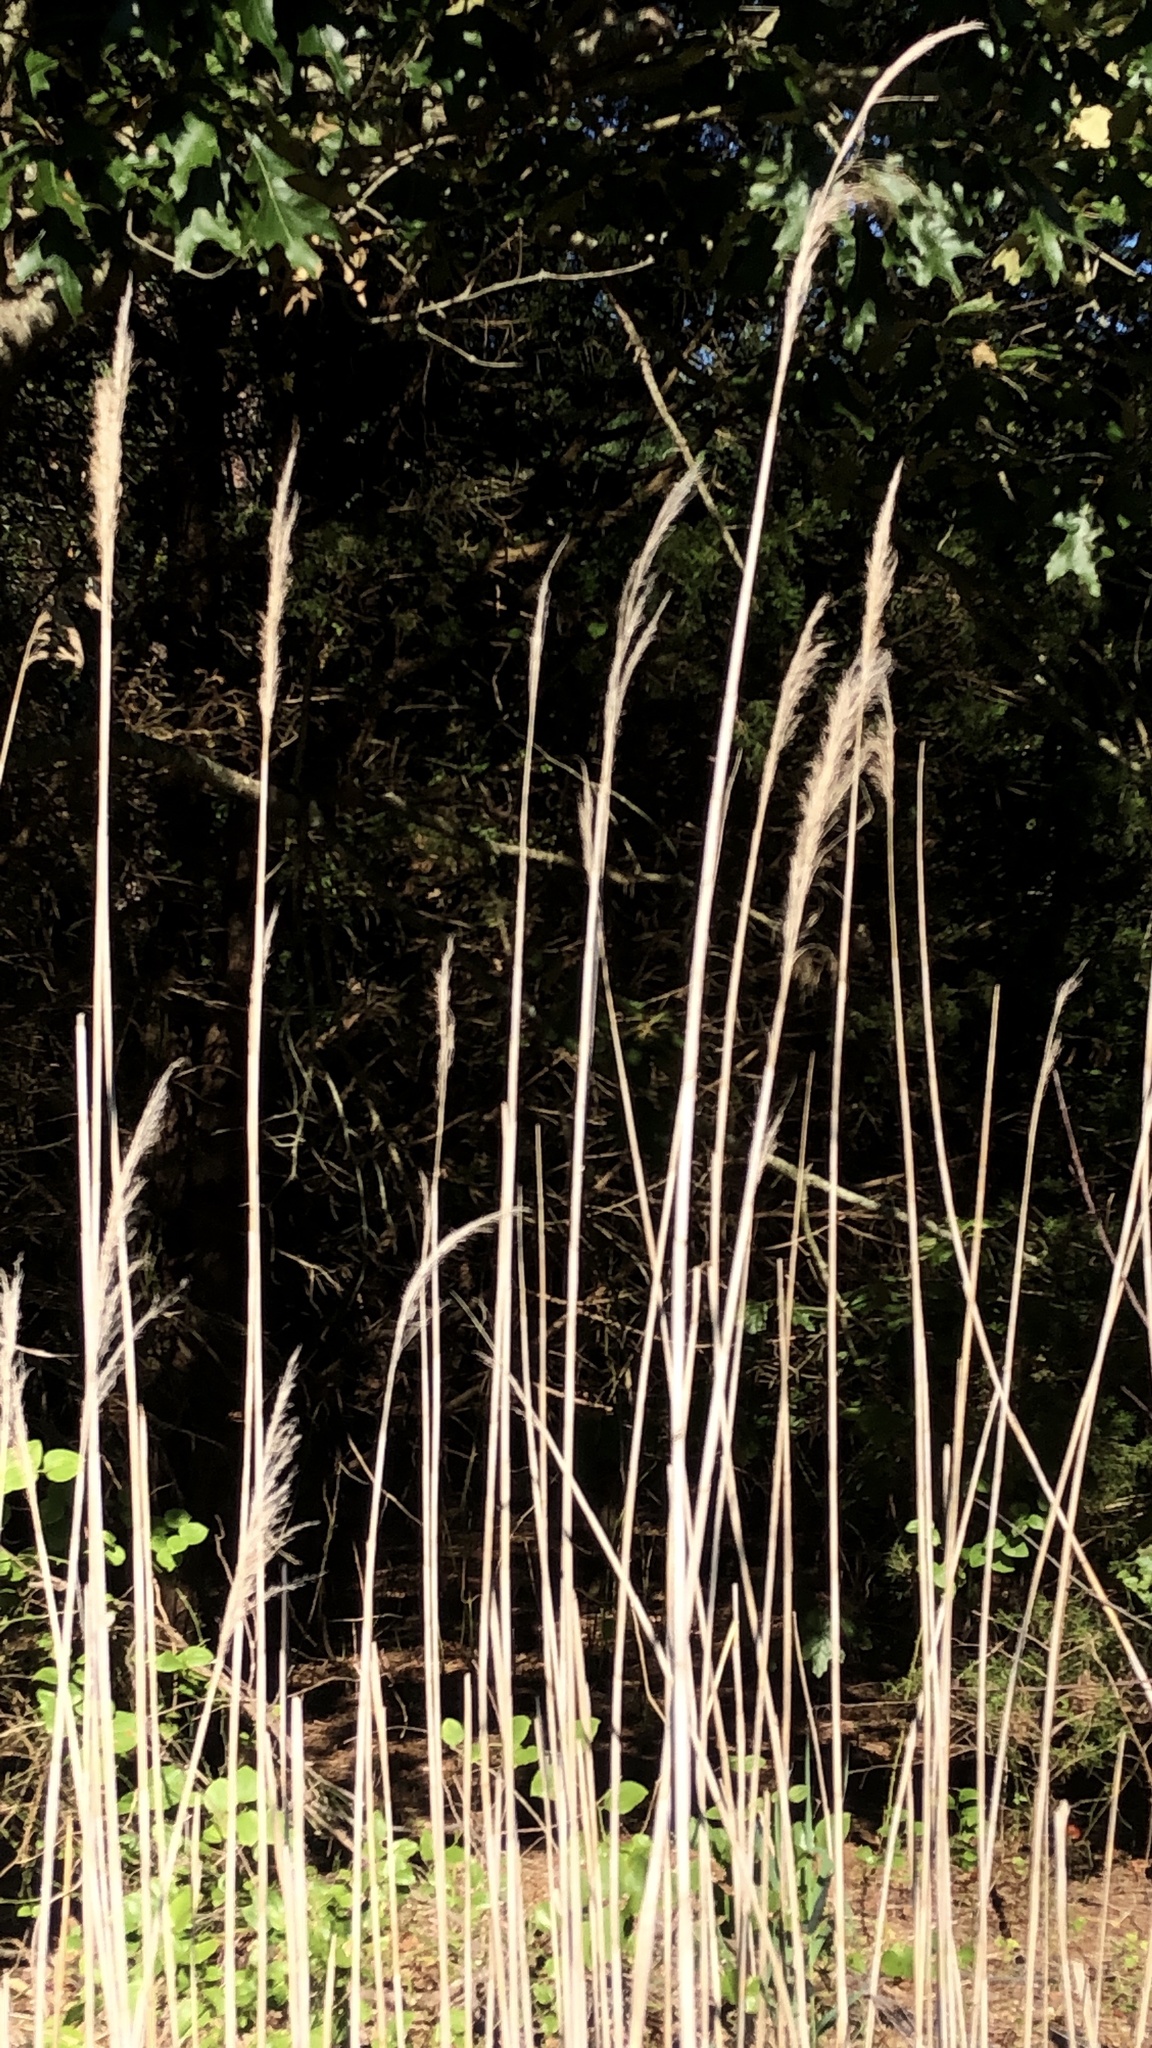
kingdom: Plantae
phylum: Tracheophyta
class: Liliopsida
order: Poales
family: Poaceae
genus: Phragmites
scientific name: Phragmites australis
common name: Common reed
